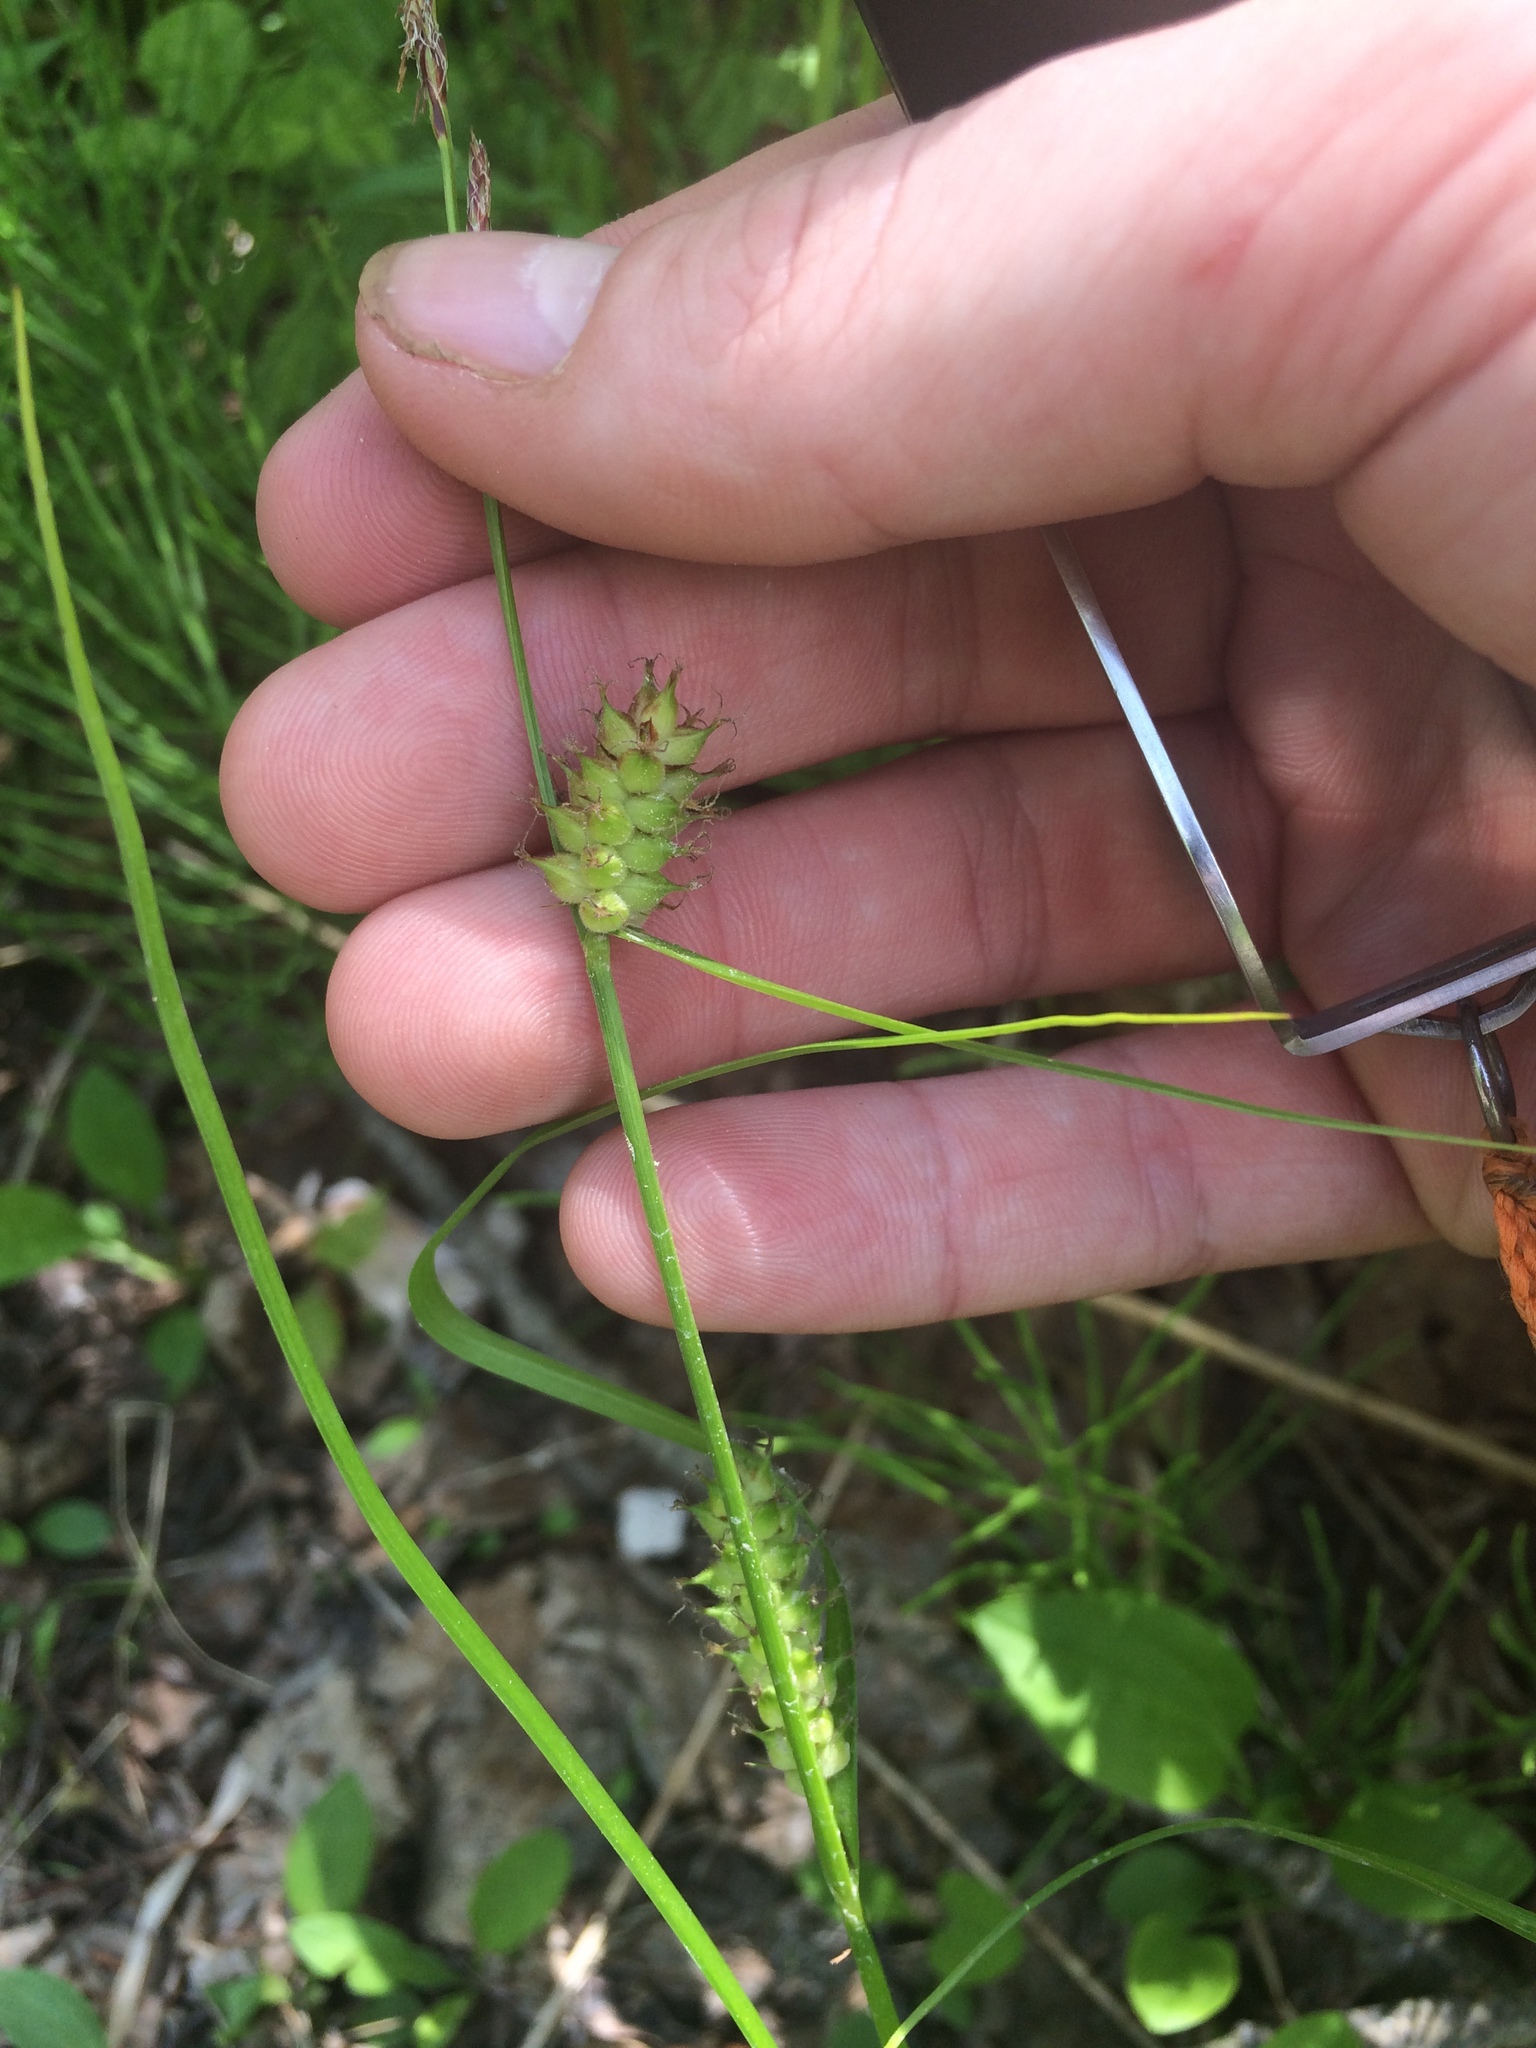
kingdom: Plantae
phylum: Tracheophyta
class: Liliopsida
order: Poales
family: Cyperaceae
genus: Carex
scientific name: Carex houghtoniana
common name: Houghton's sedge
